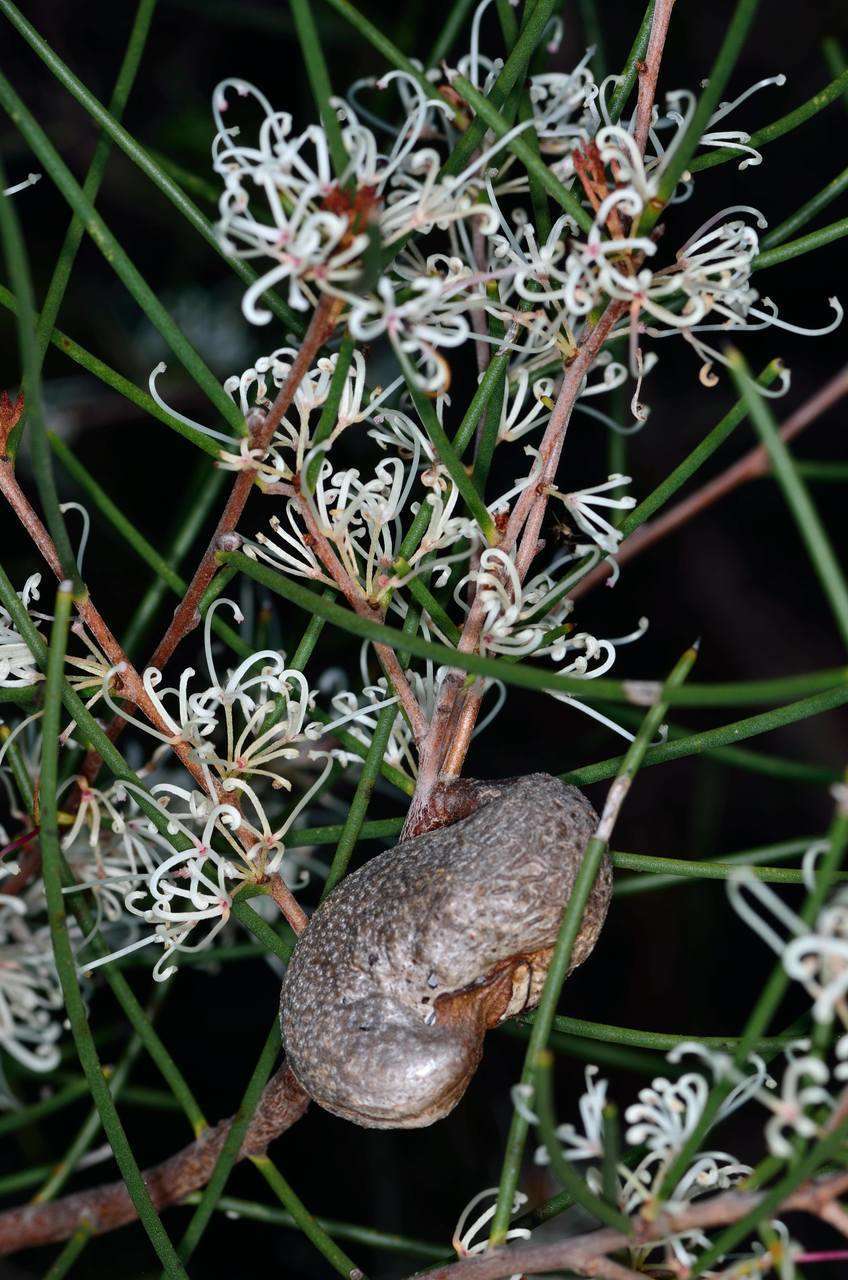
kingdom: Plantae
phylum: Tracheophyta
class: Magnoliopsida
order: Proteales
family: Proteaceae
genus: Hakea
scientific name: Hakea rostrata
